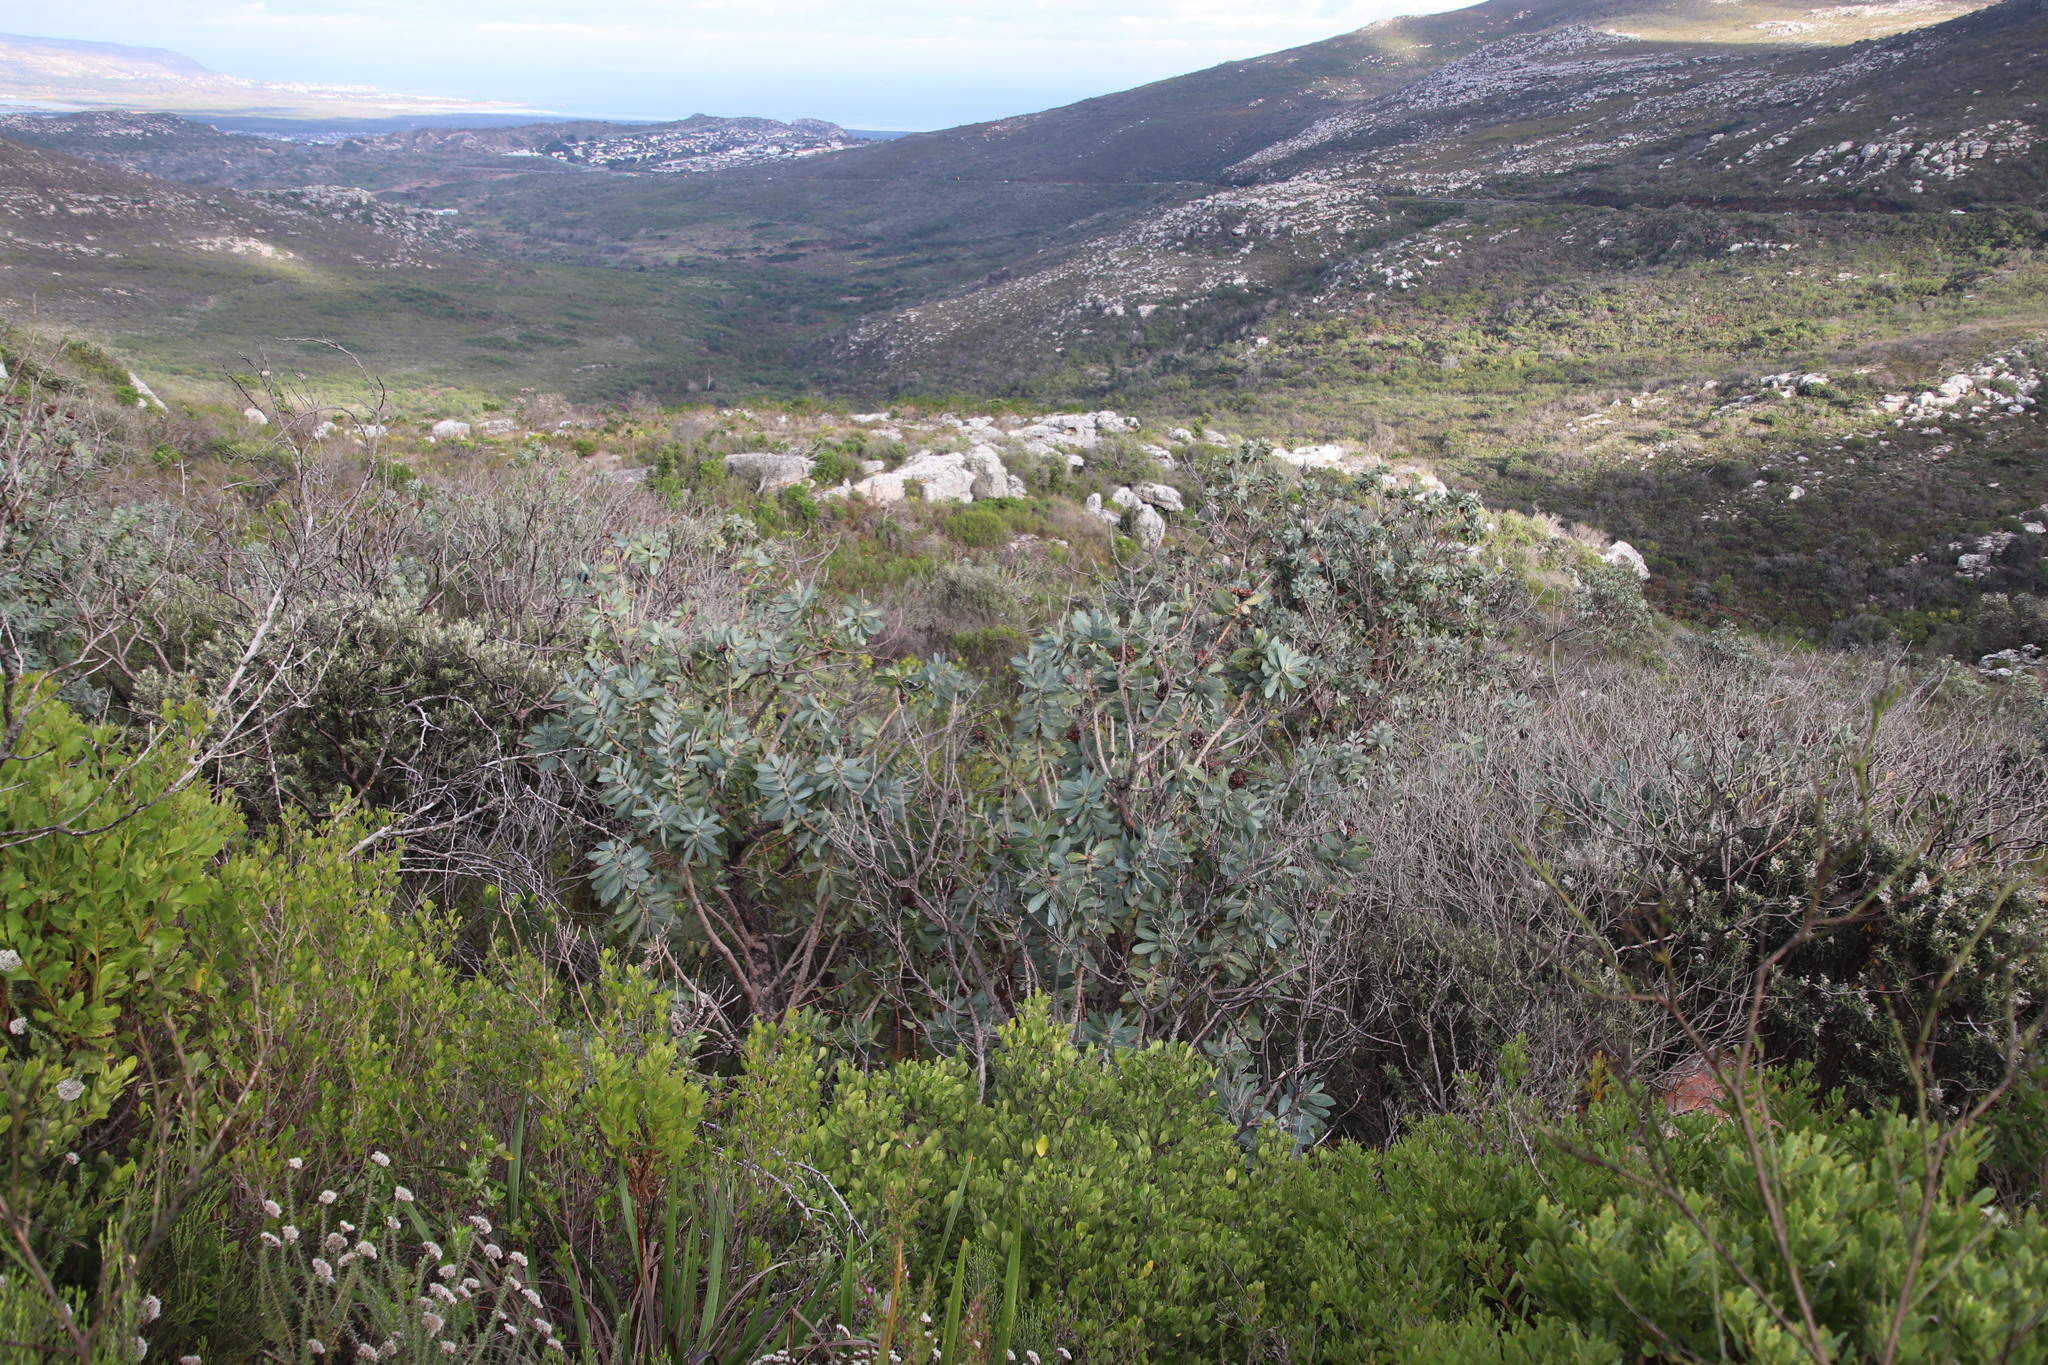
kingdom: Plantae
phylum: Tracheophyta
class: Magnoliopsida
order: Proteales
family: Proteaceae
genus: Protea
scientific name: Protea nitida
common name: Tree protea
